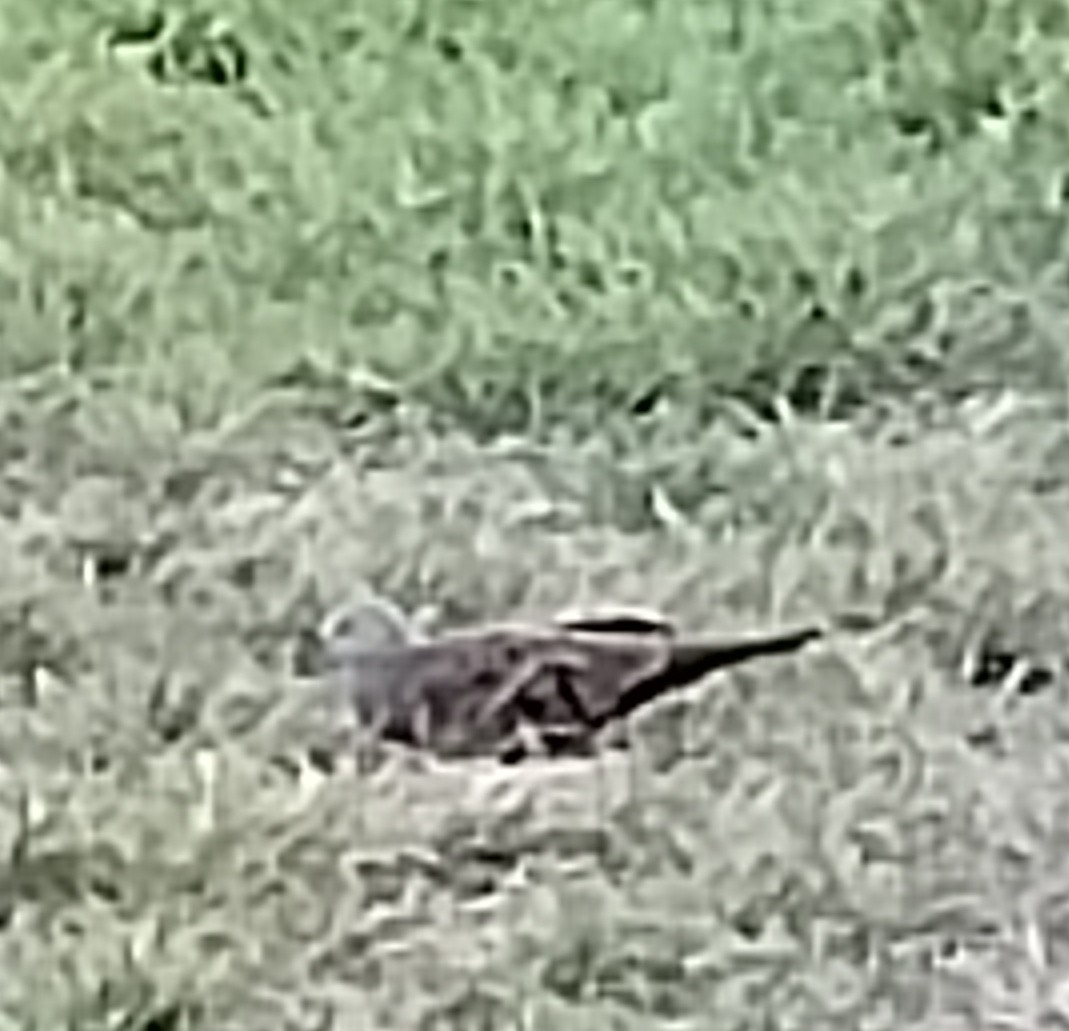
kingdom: Animalia
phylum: Chordata
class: Aves
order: Columbiformes
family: Columbidae
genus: Columbina
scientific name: Columbina talpacoti
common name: Ruddy ground dove
